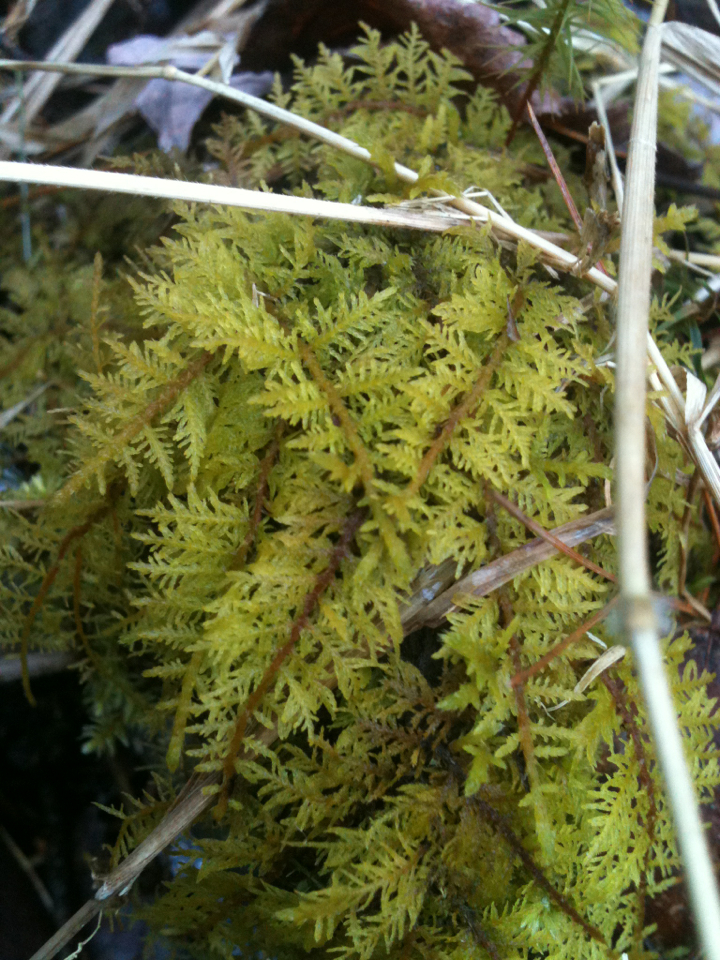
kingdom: Plantae
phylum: Bryophyta
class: Bryopsida
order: Hypnales
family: Thuidiaceae
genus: Thuidium
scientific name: Thuidium delicatulum
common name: Delicate fern moss
